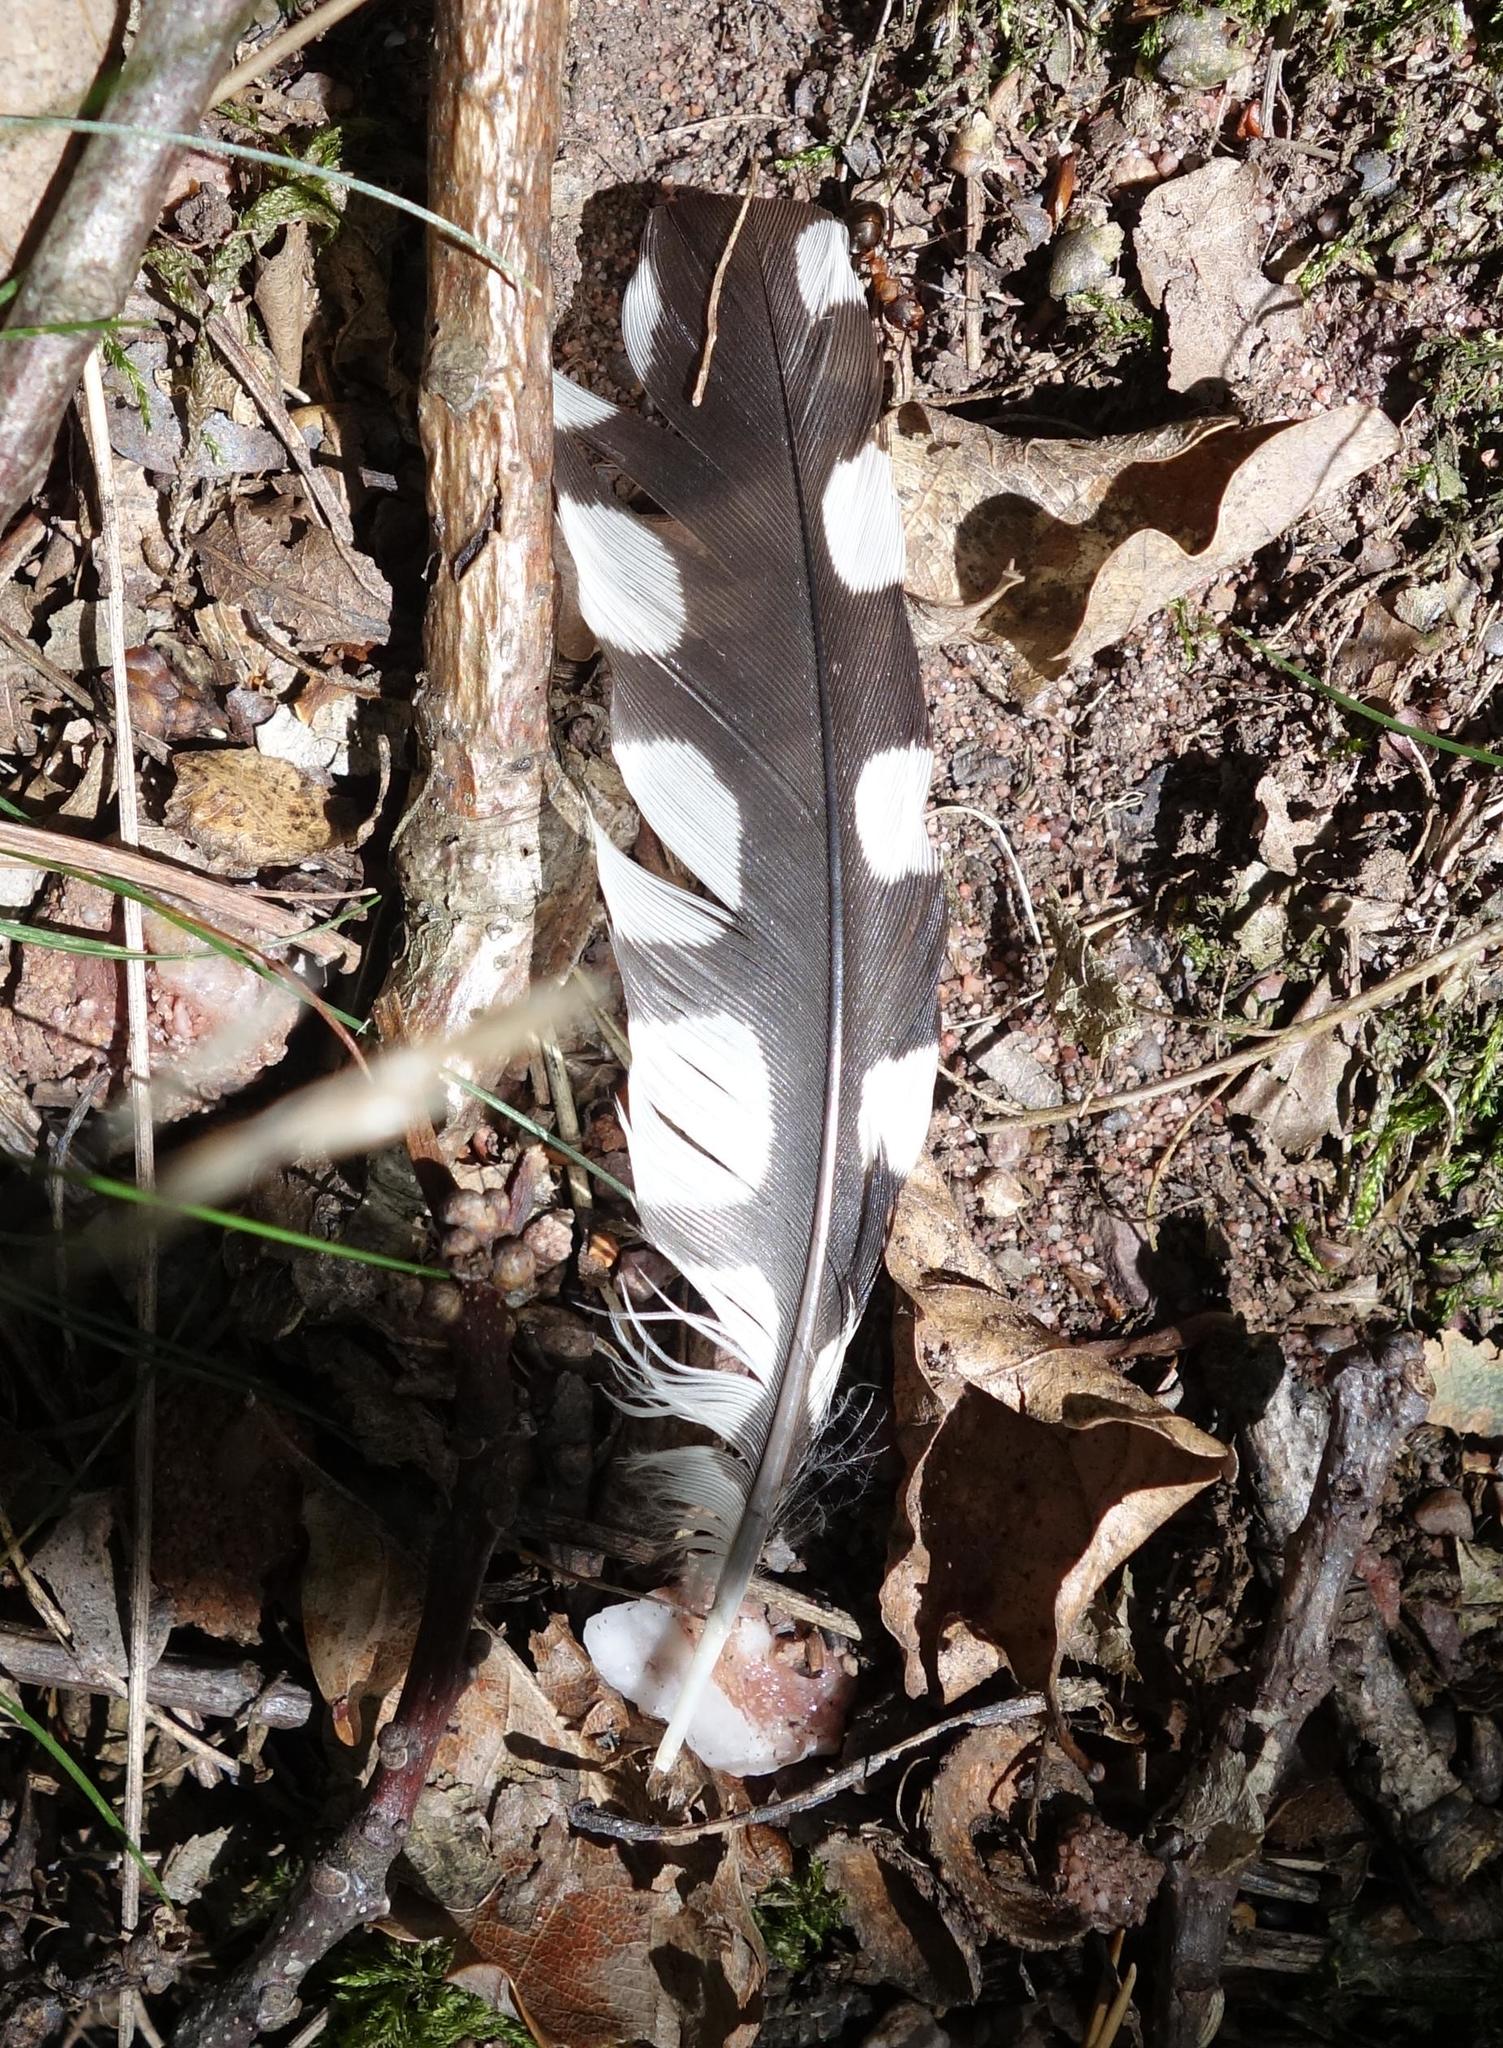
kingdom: Animalia
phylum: Chordata
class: Aves
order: Piciformes
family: Picidae
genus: Dendrocopos
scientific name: Dendrocopos major
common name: Great spotted woodpecker
